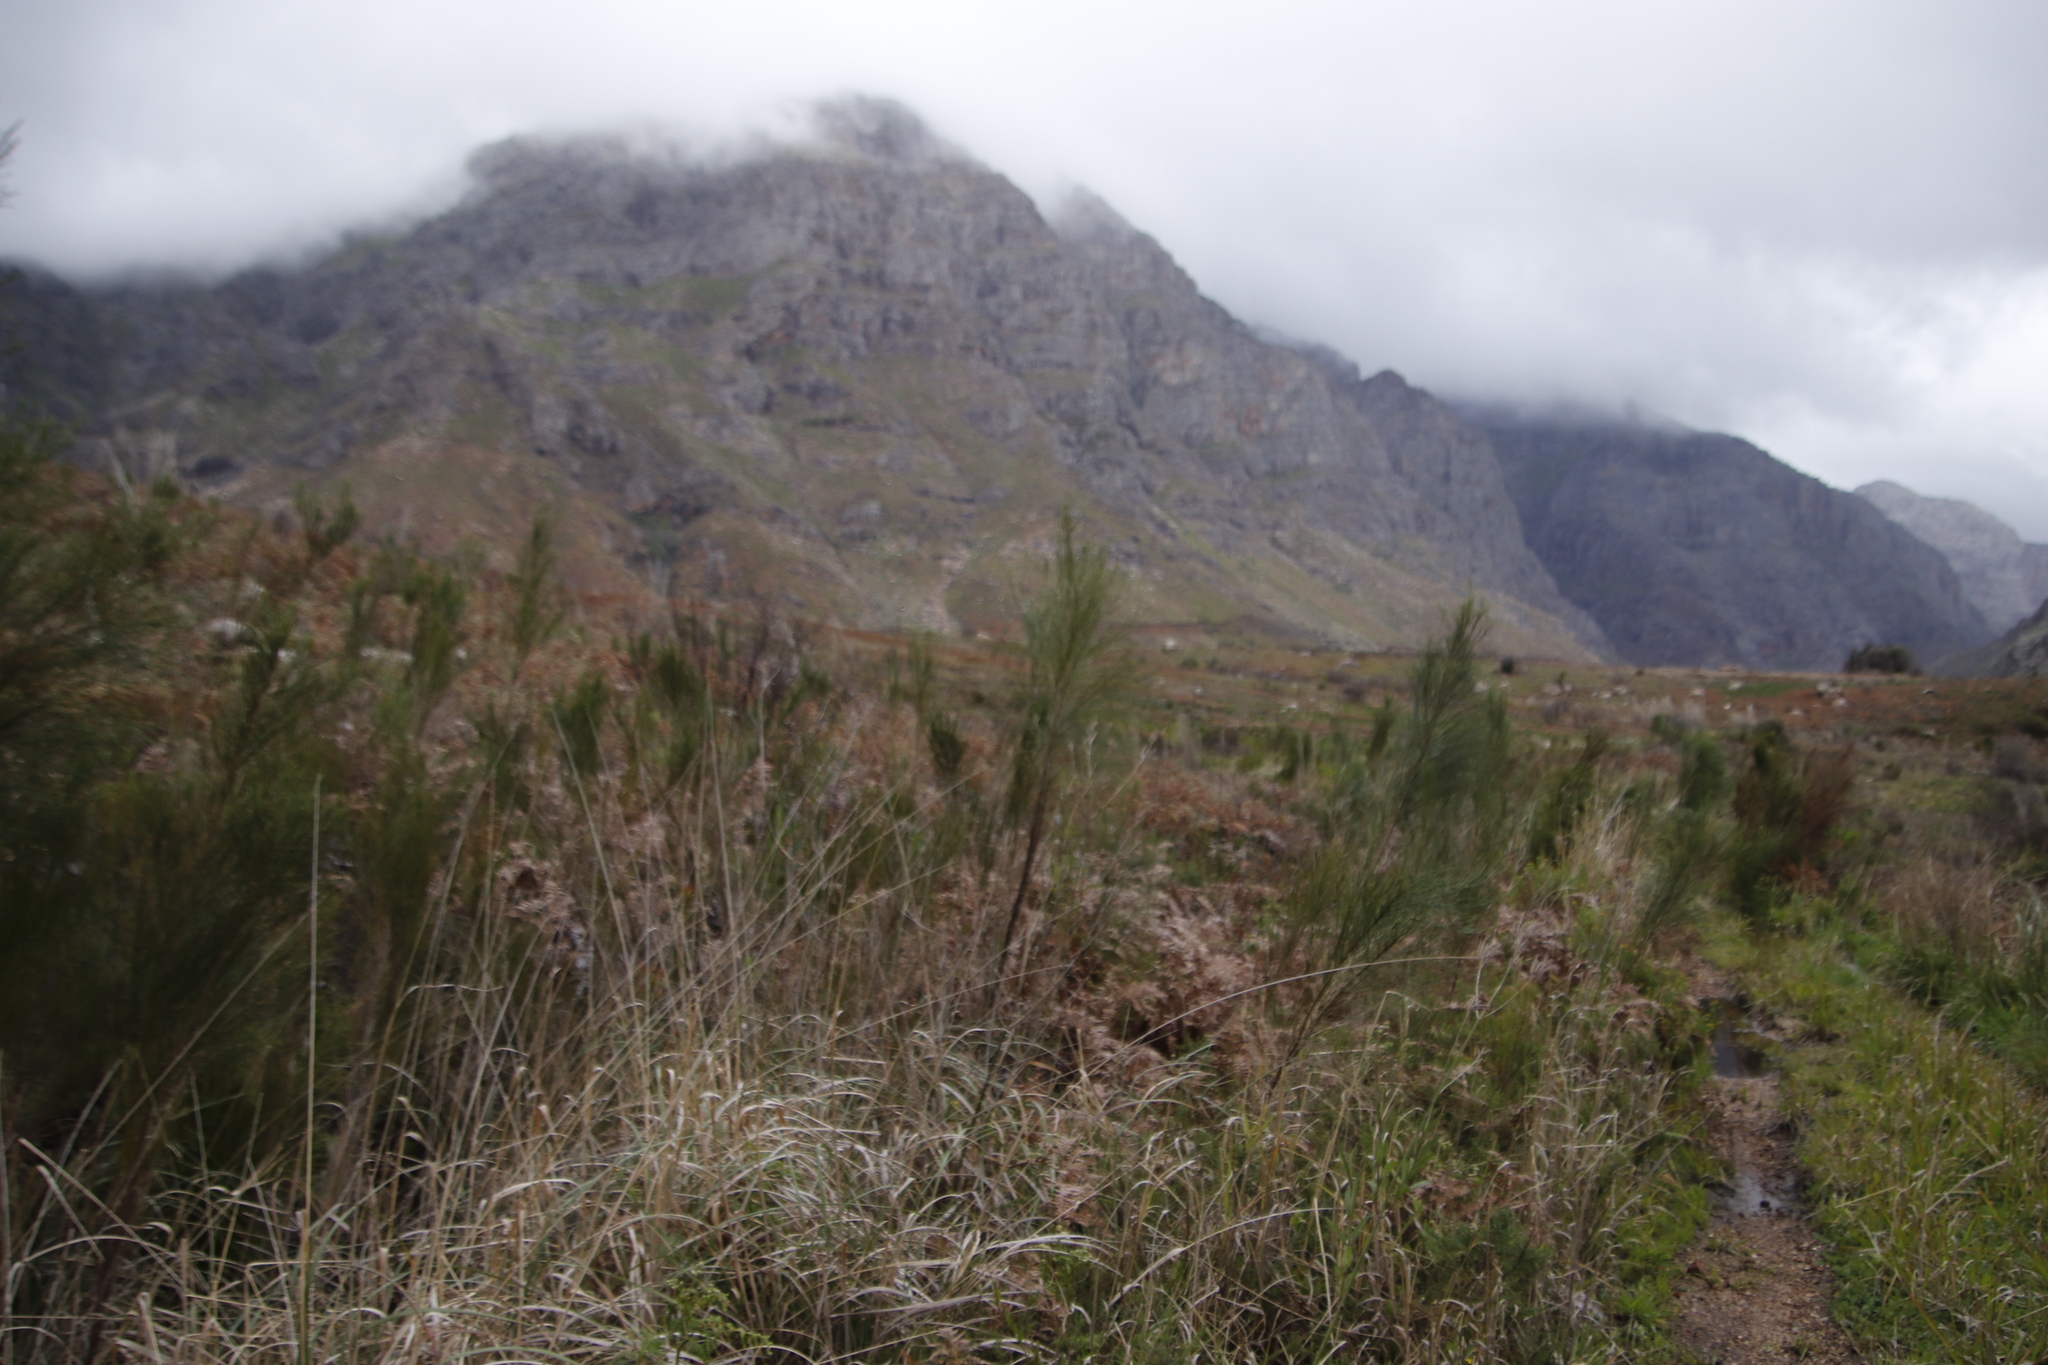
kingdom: Plantae
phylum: Tracheophyta
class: Magnoliopsida
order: Fabales
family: Fabaceae
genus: Psoralea
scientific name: Psoralea usitata
